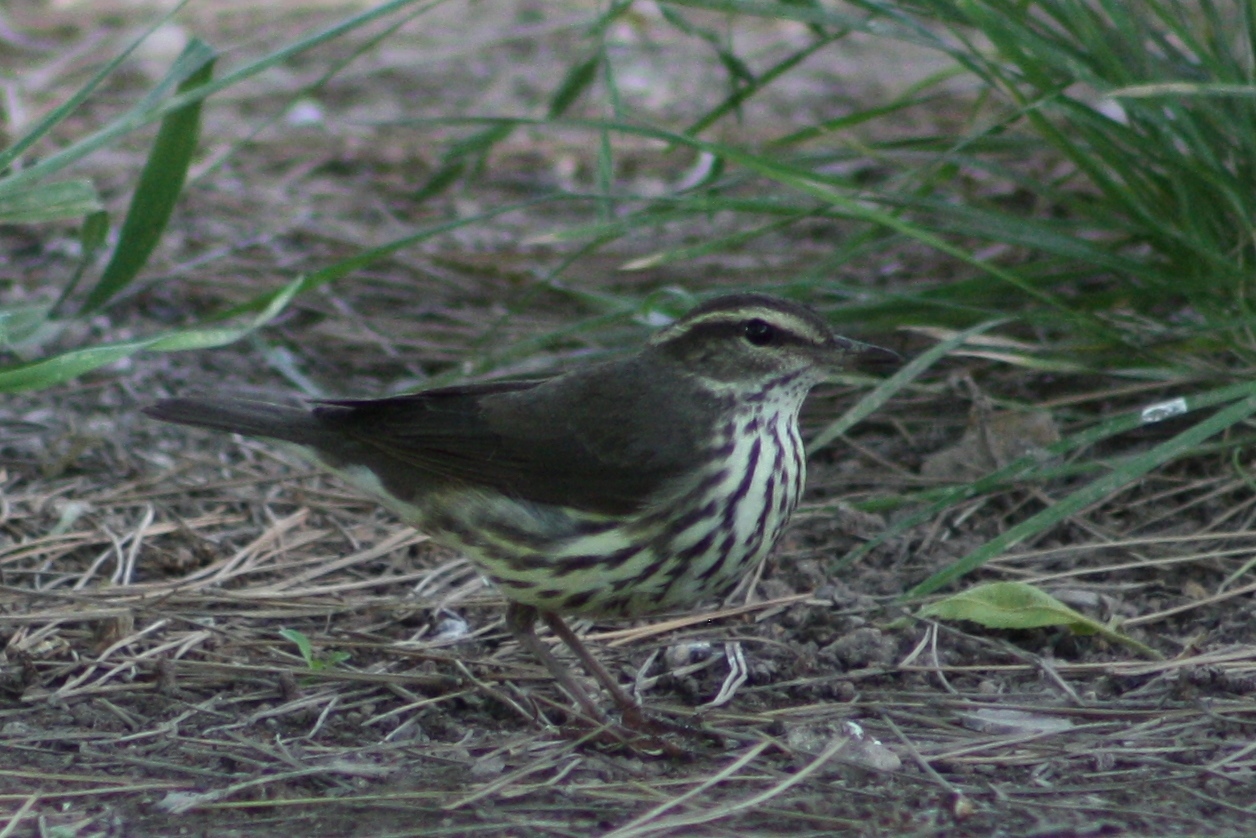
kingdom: Animalia
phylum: Chordata
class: Aves
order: Passeriformes
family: Parulidae
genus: Parkesia
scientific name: Parkesia noveboracensis
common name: Northern waterthrush
